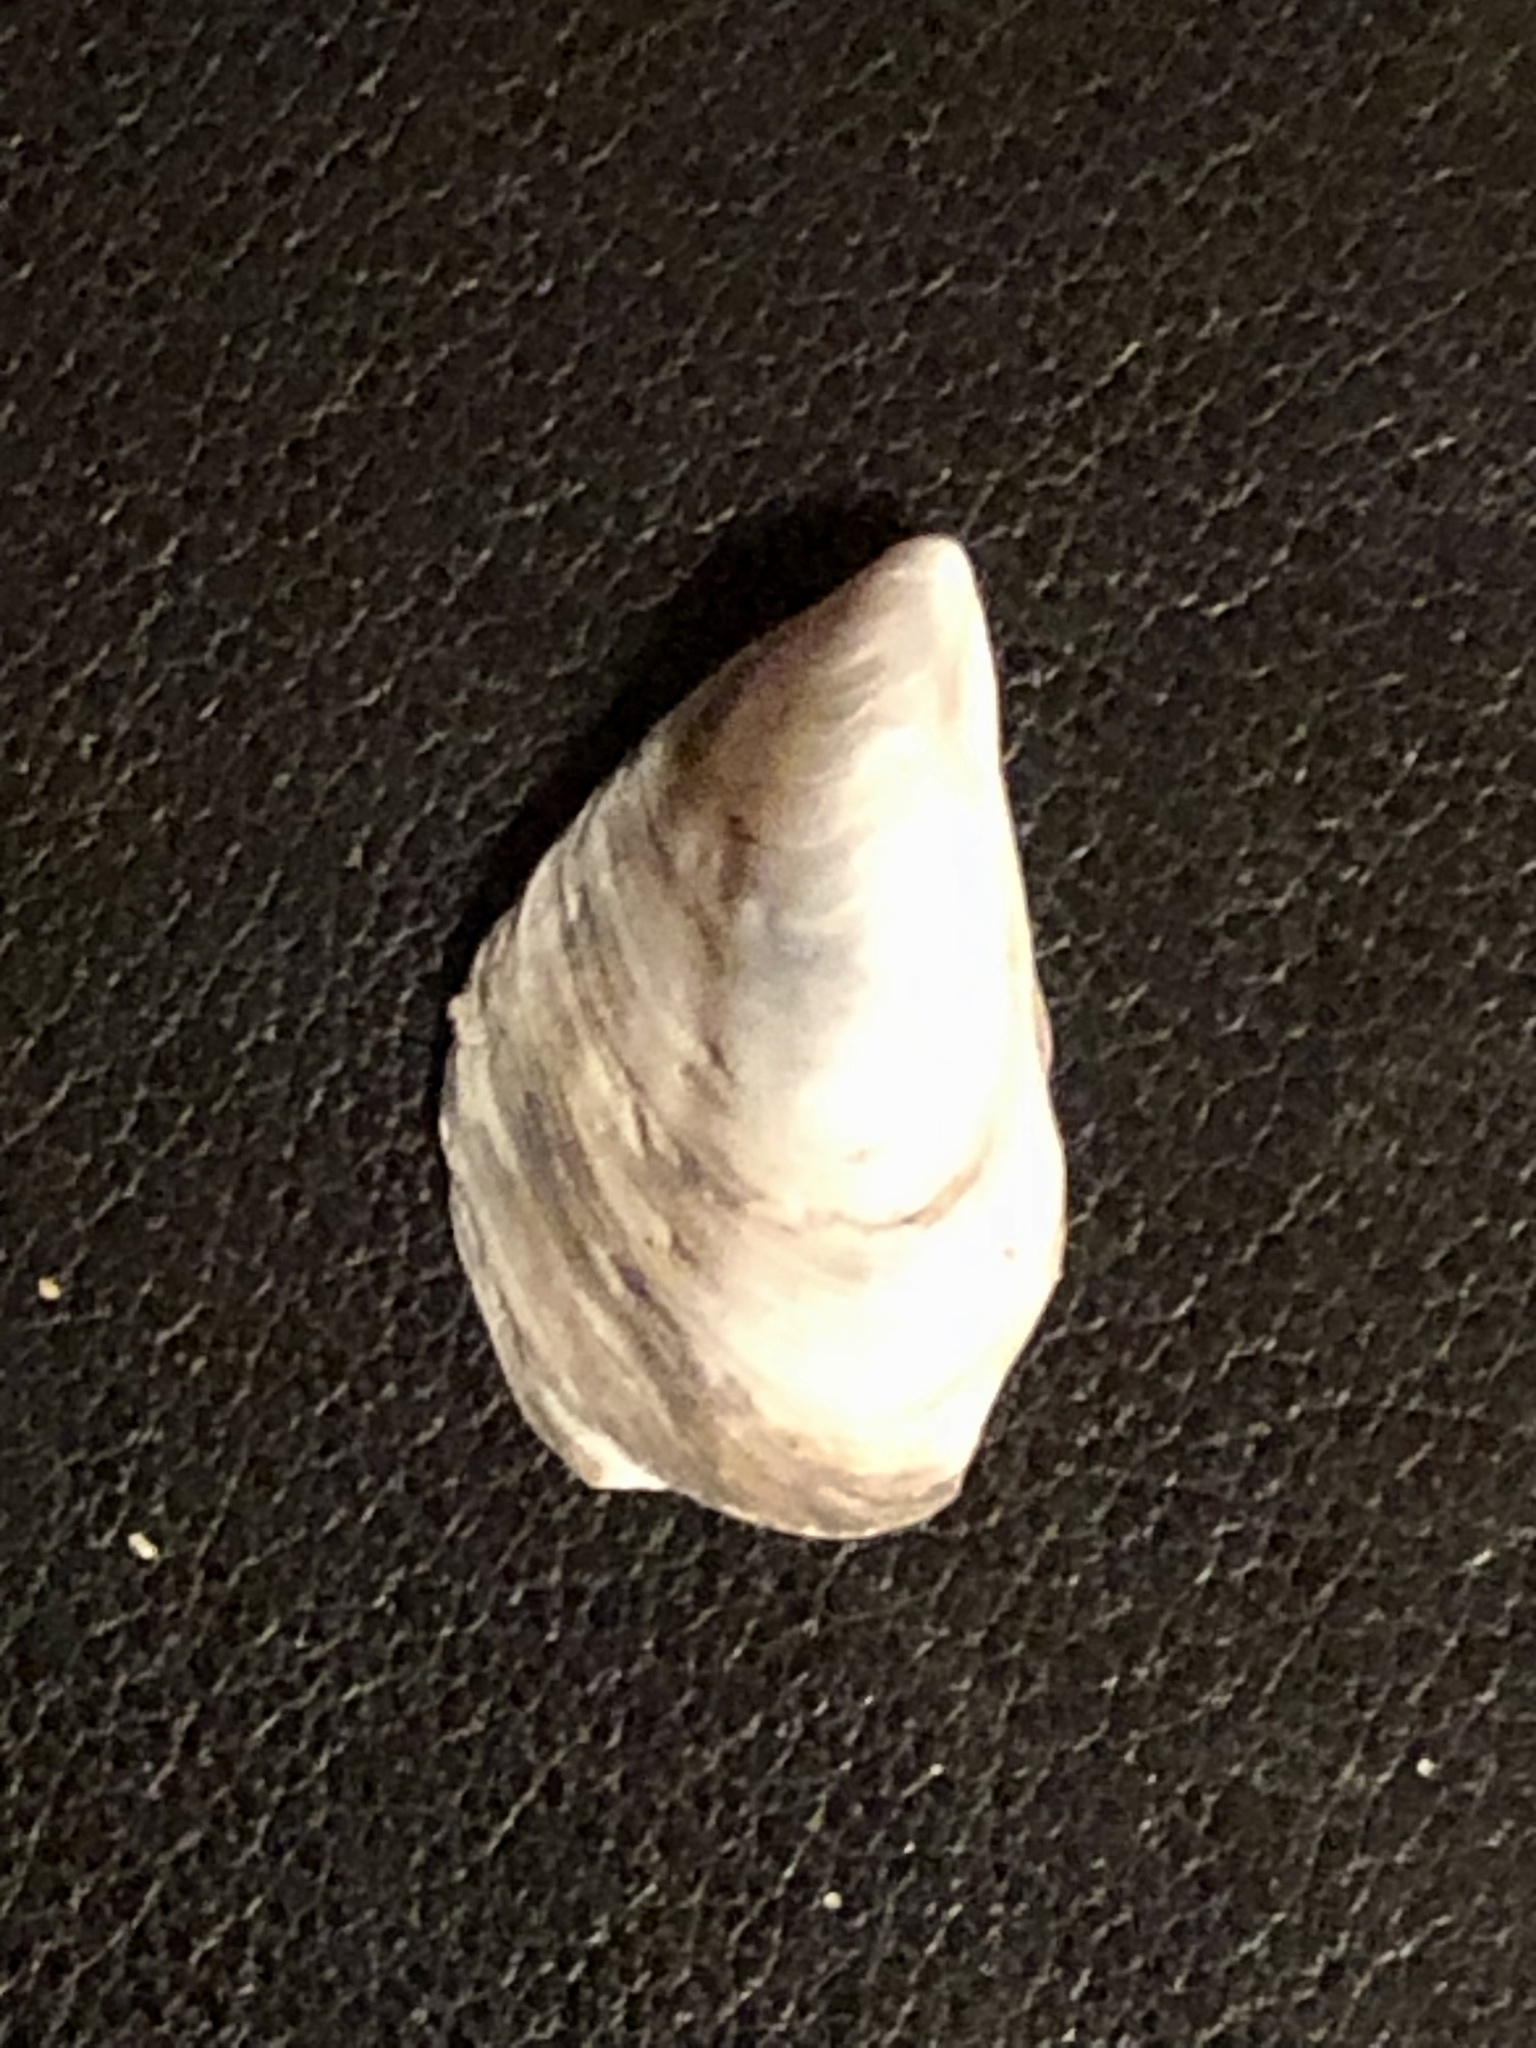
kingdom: Animalia
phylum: Mollusca
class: Bivalvia
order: Myida
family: Dreissenidae
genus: Dreissena
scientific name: Dreissena bugensis
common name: Quagga mussel
